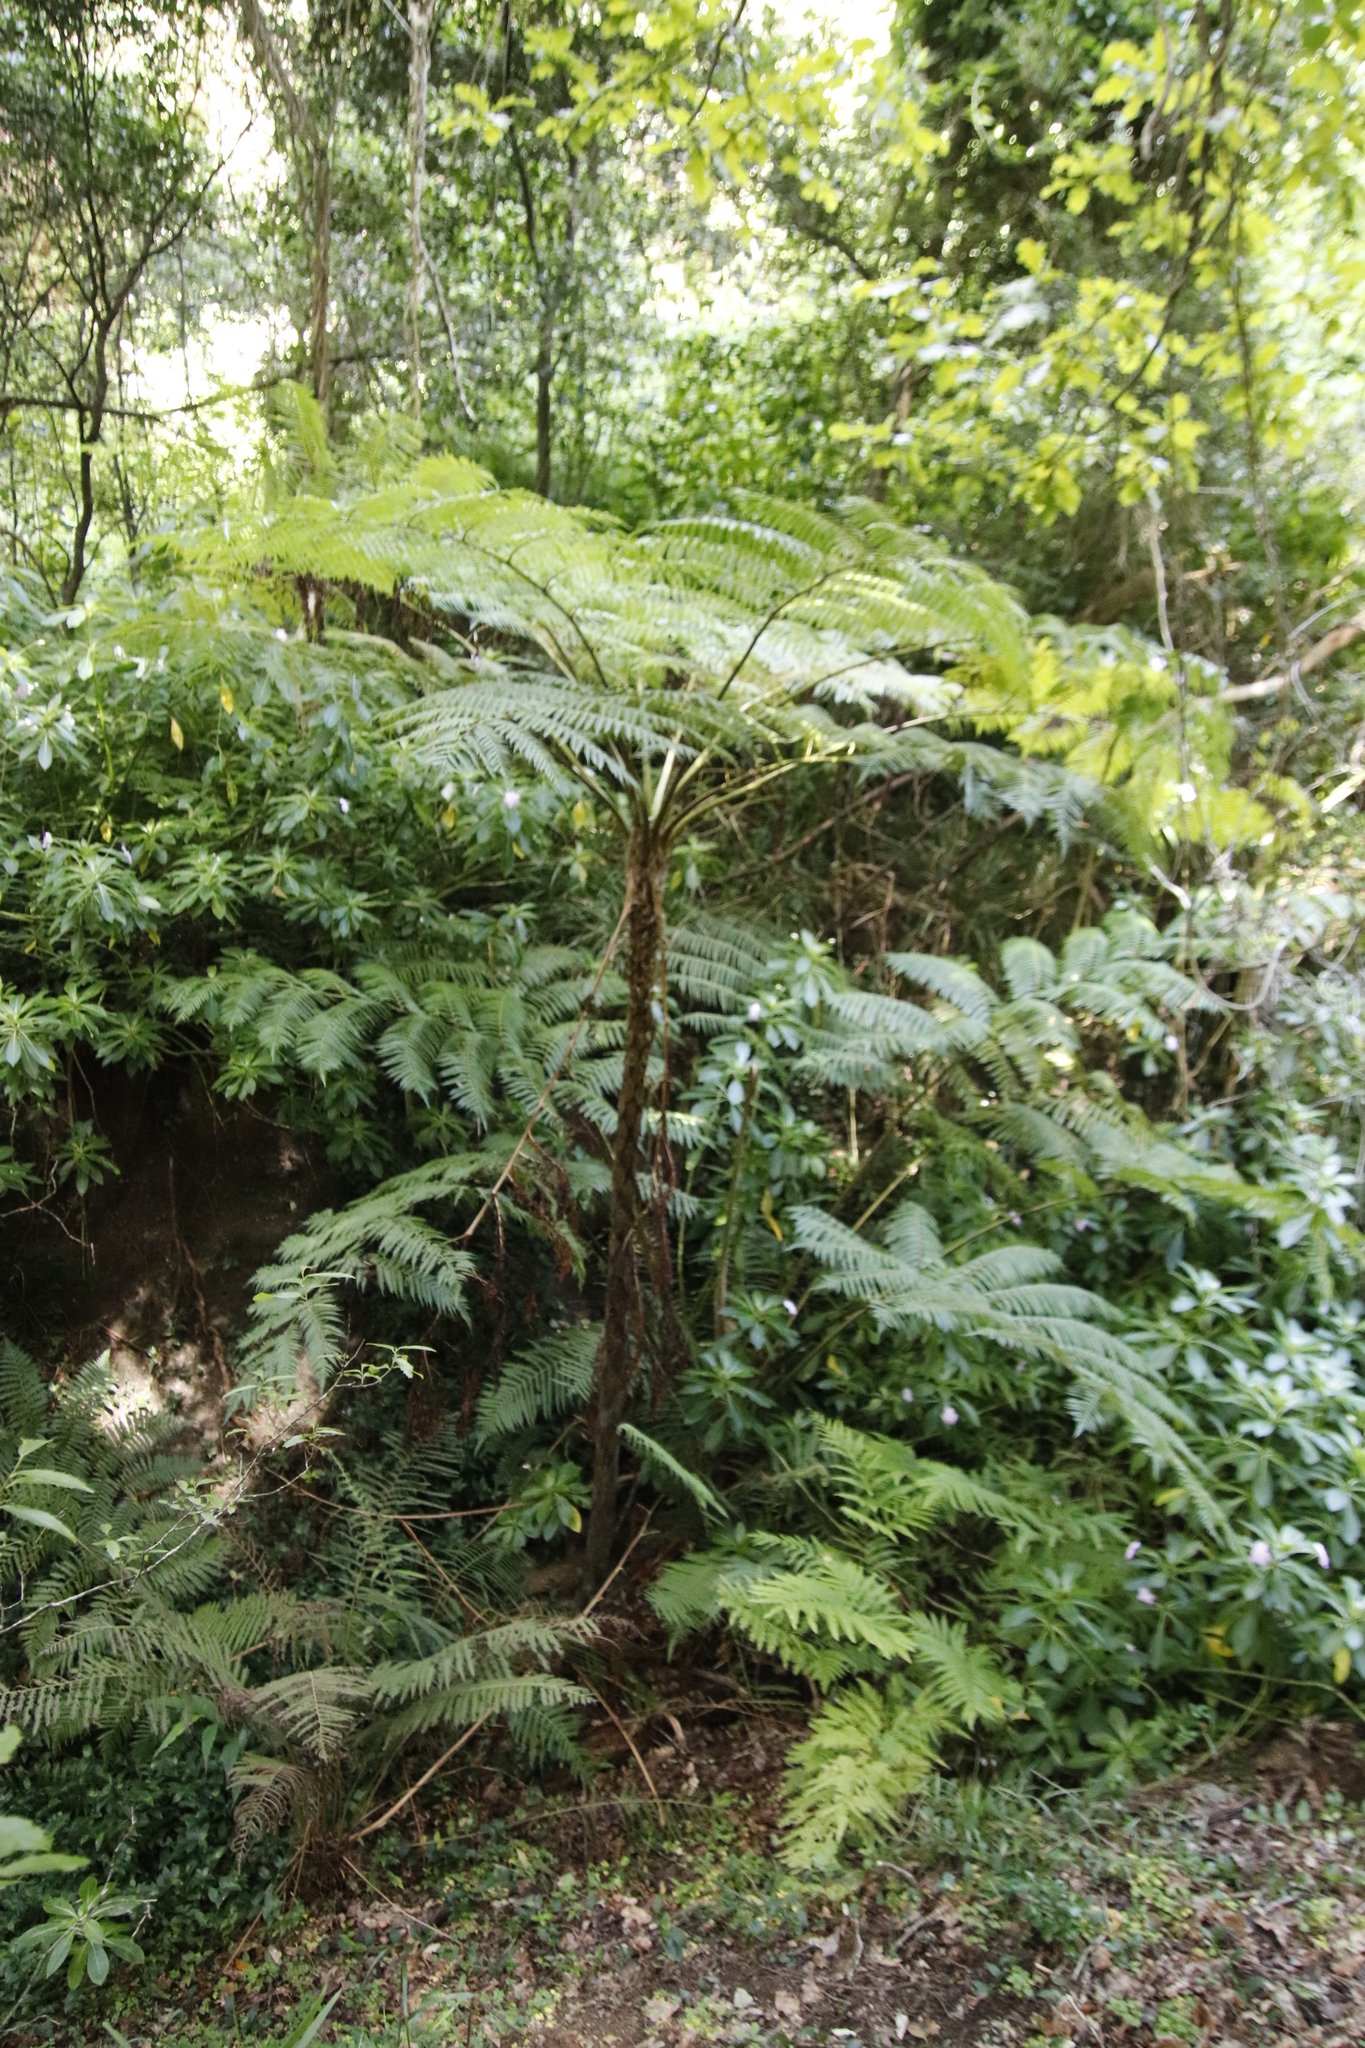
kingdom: Plantae
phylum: Tracheophyta
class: Polypodiopsida
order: Cyatheales
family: Cyatheaceae
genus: Sphaeropteris
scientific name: Sphaeropteris cooperi
